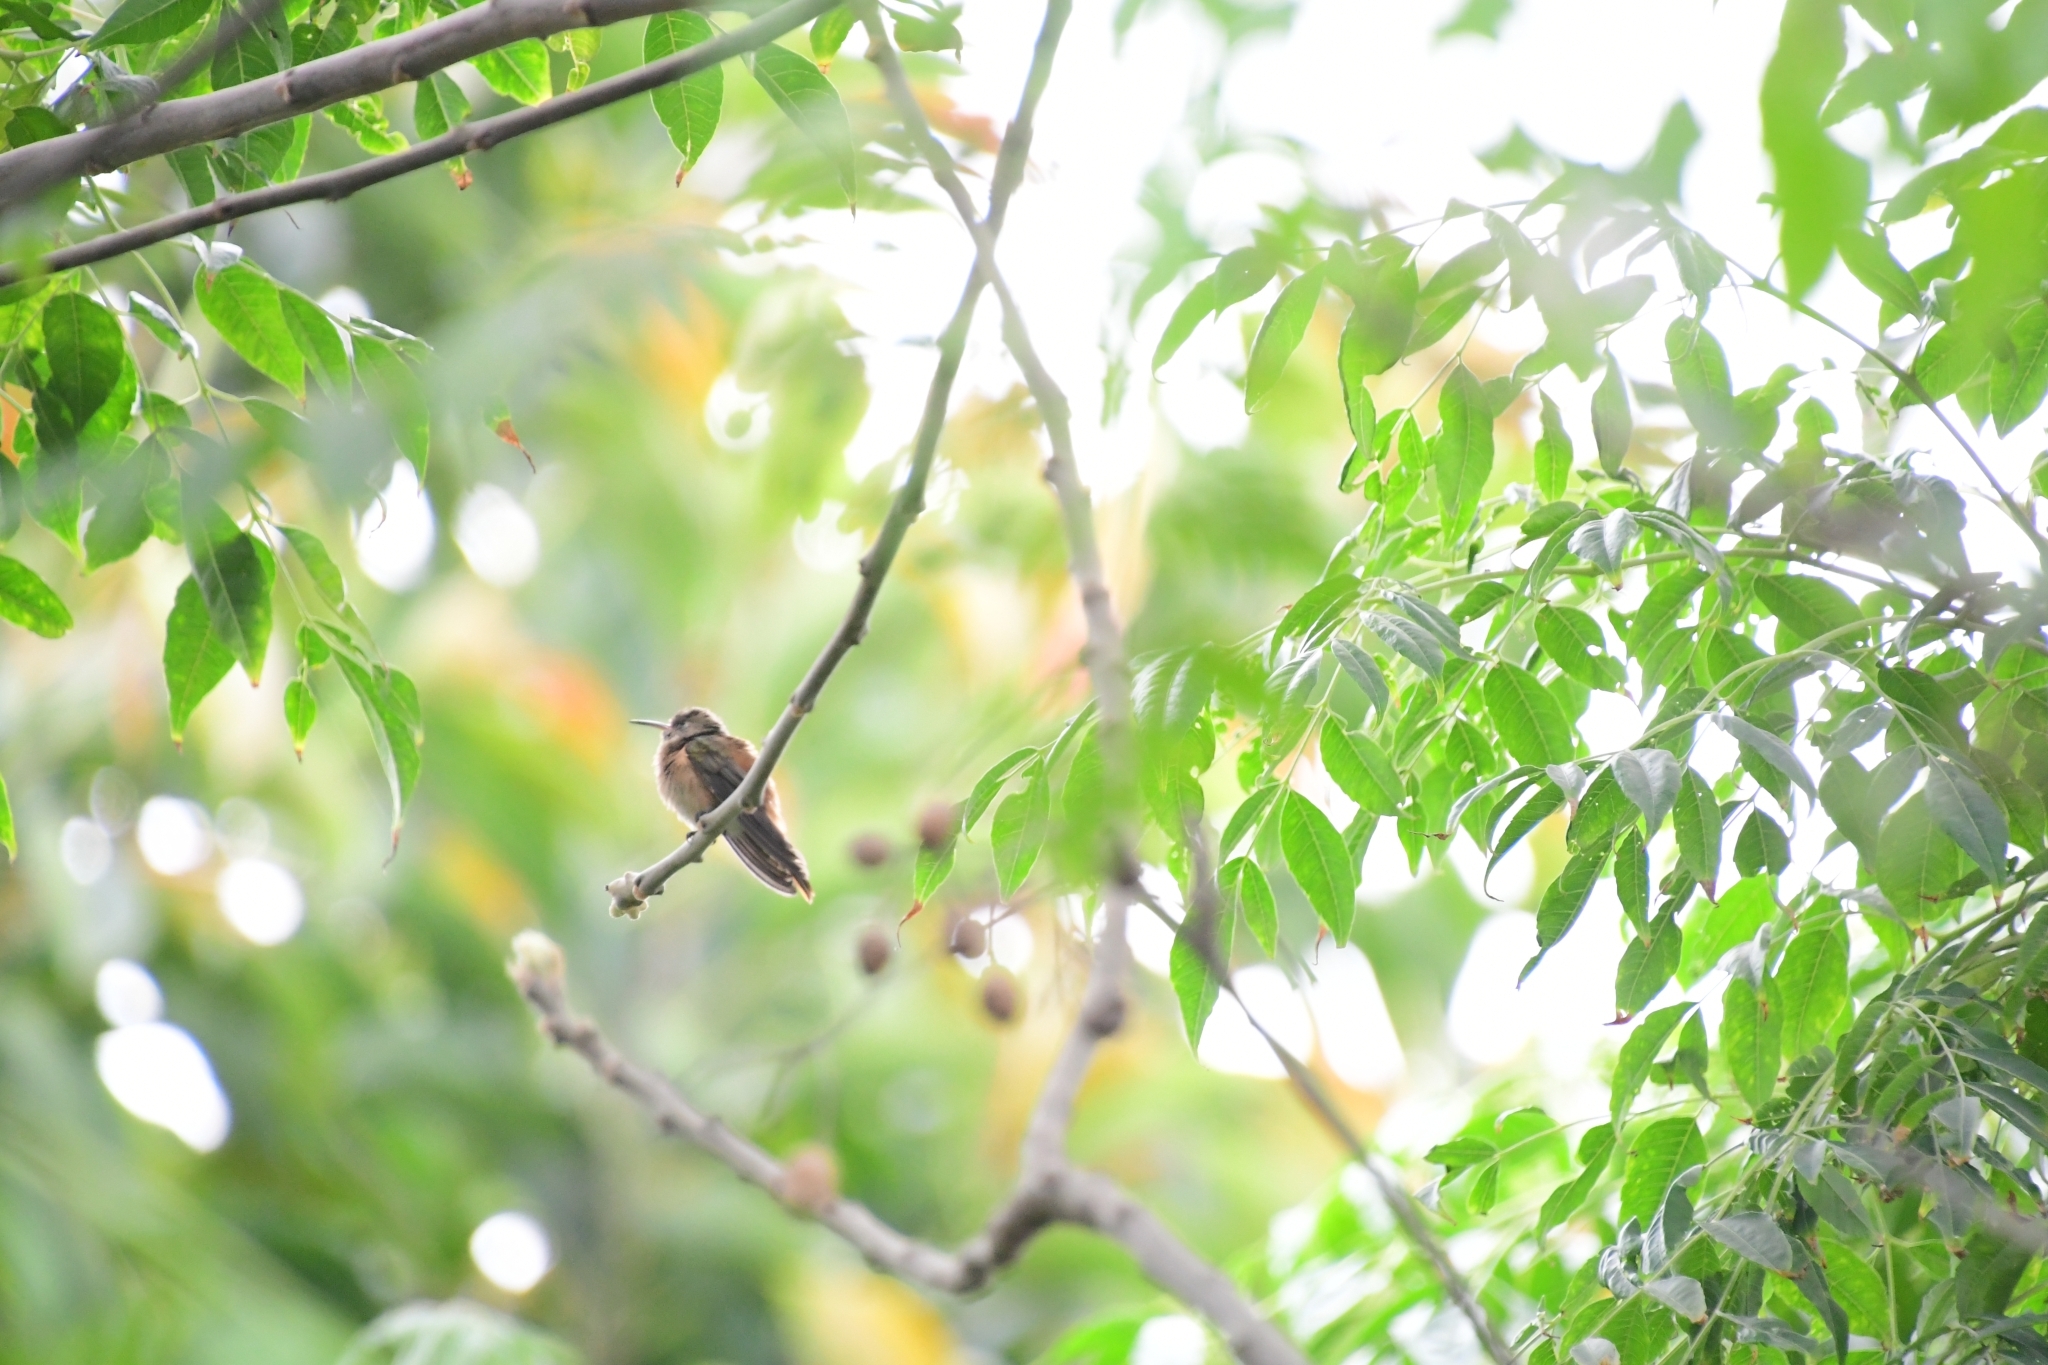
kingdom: Animalia
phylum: Chordata
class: Aves
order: Apodiformes
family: Trochilidae
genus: Amazilis
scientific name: Amazilis amazilia
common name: Amazilia hummingbird
